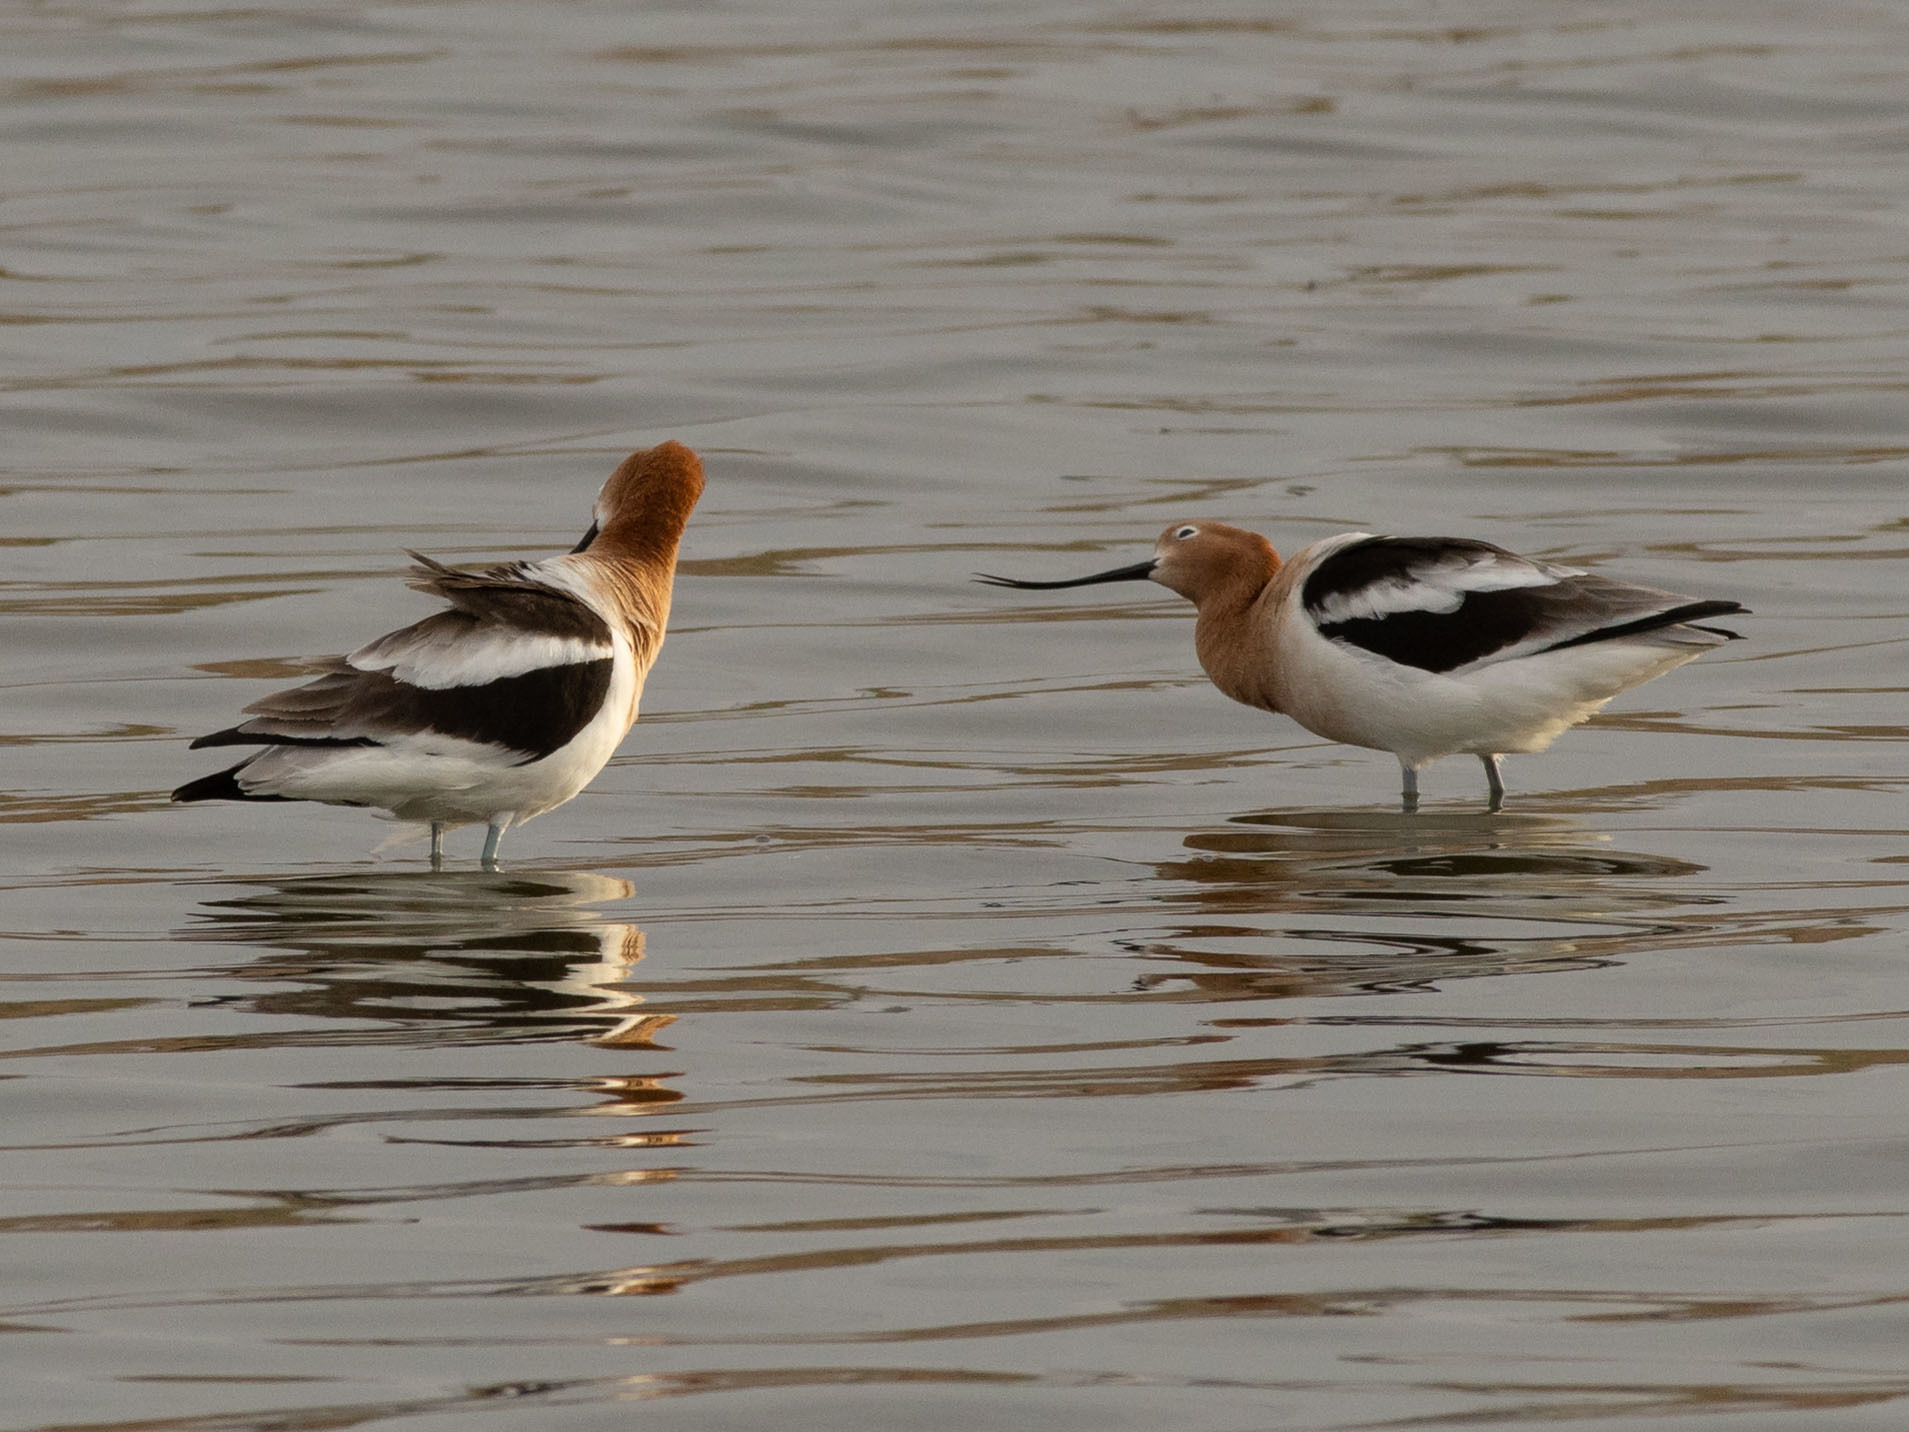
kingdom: Animalia
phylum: Chordata
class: Aves
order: Charadriiformes
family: Recurvirostridae
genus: Recurvirostra
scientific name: Recurvirostra americana
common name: American avocet
